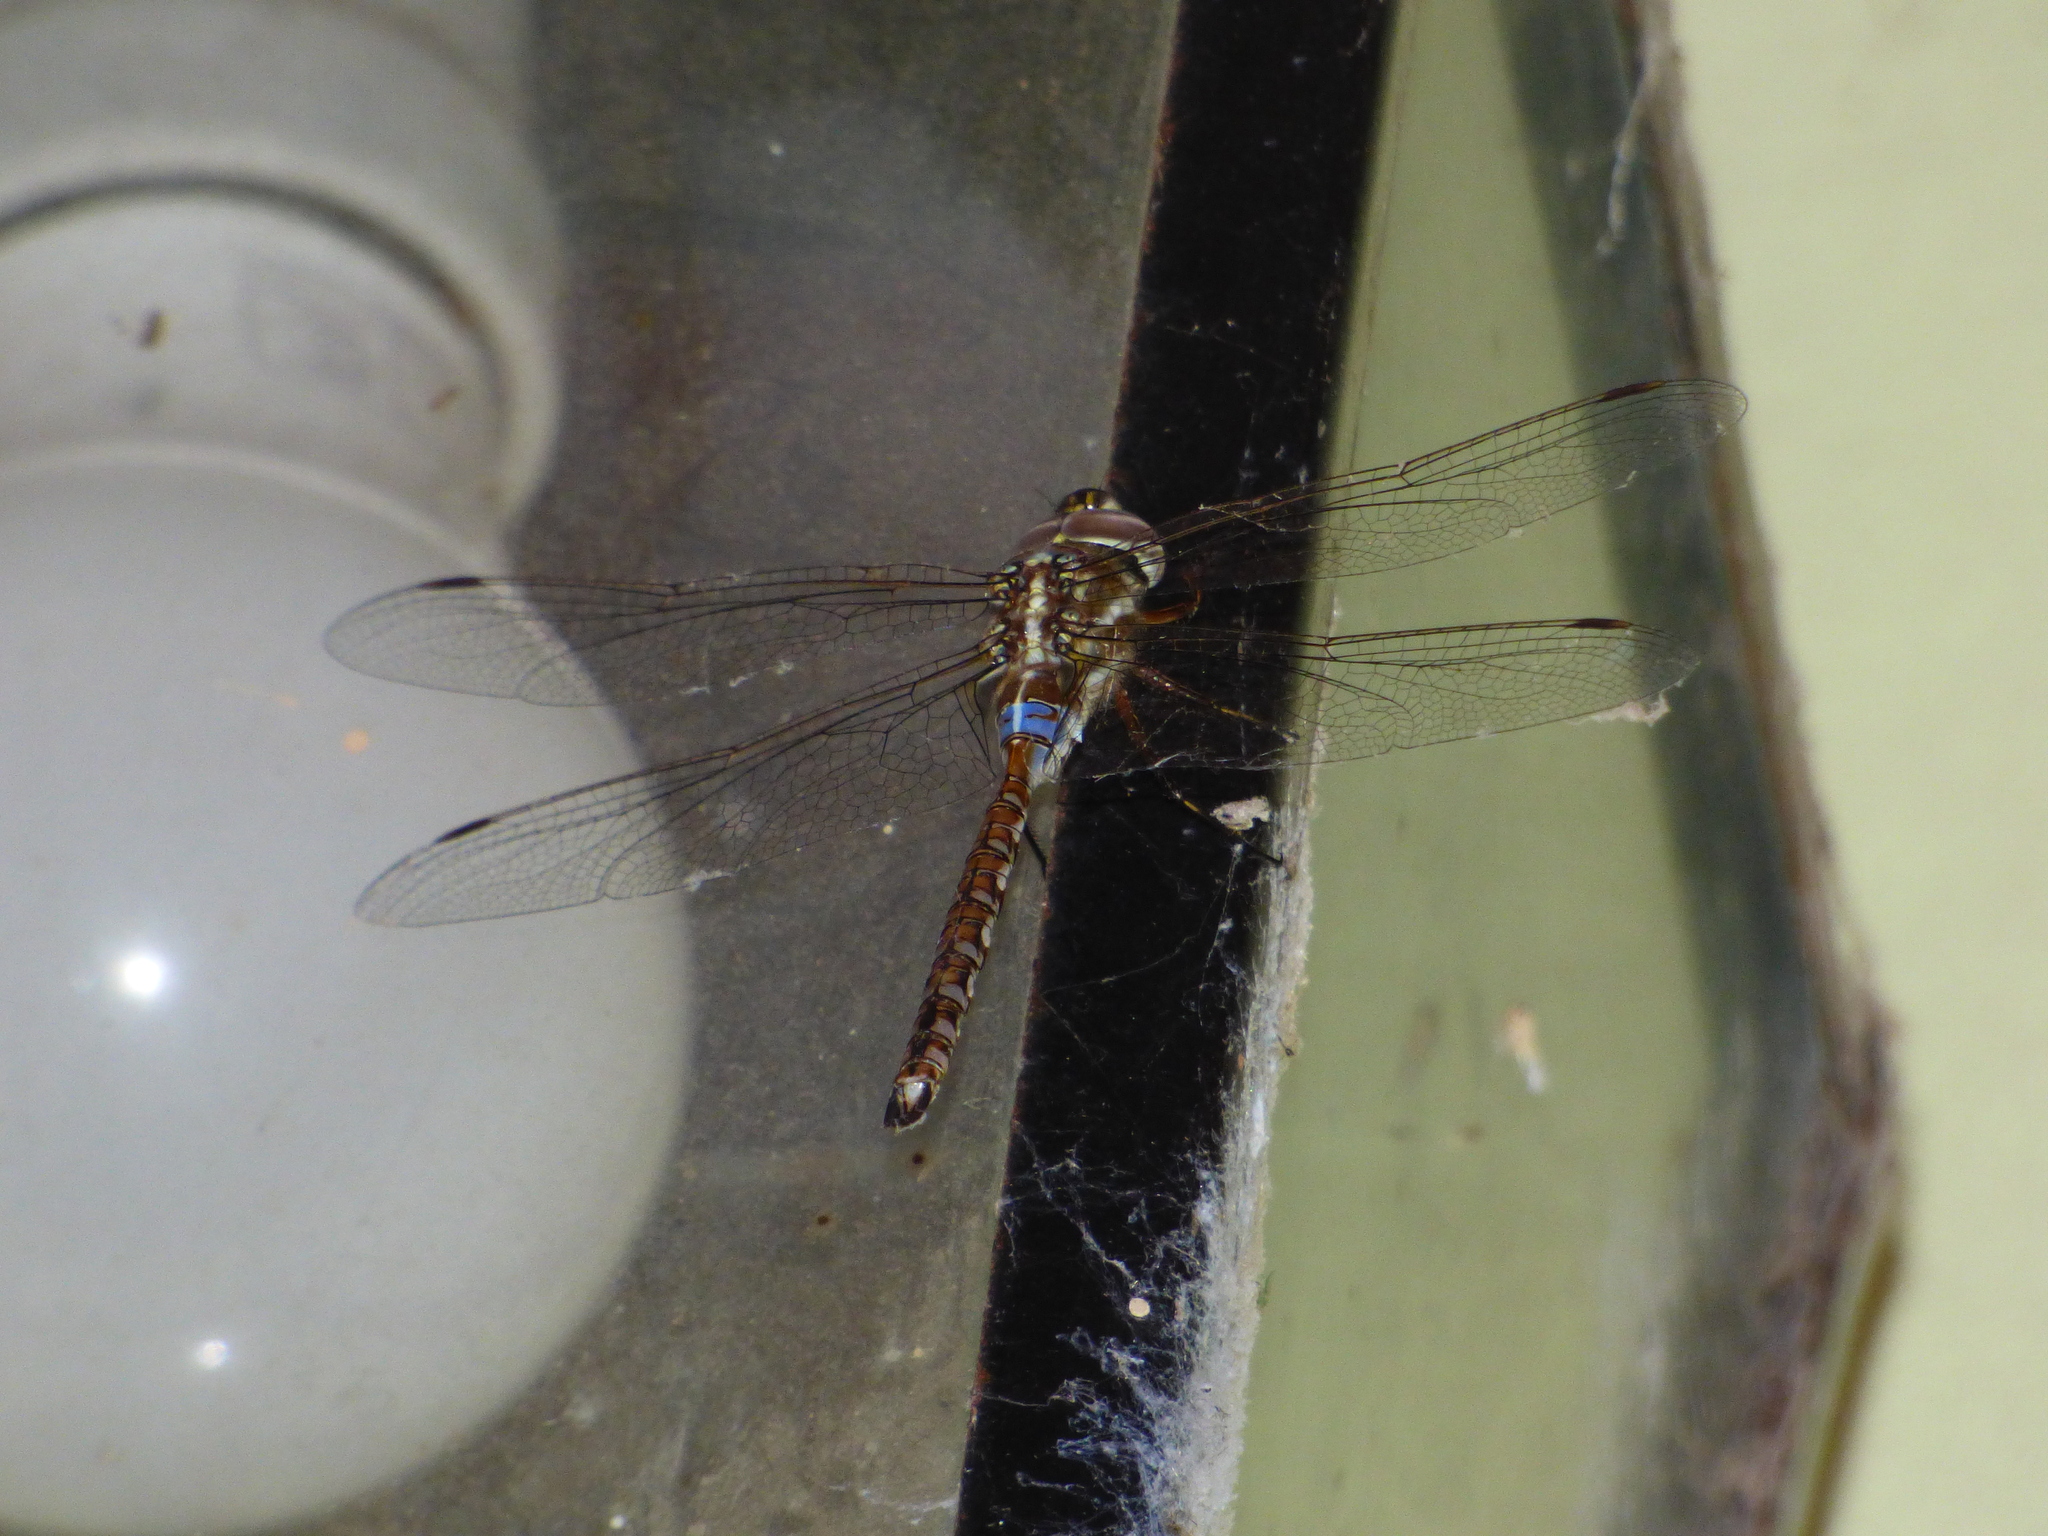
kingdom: Animalia
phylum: Arthropoda
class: Insecta
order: Odonata
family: Aeshnidae
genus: Rhionaeschna
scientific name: Rhionaeschna bonariensis
